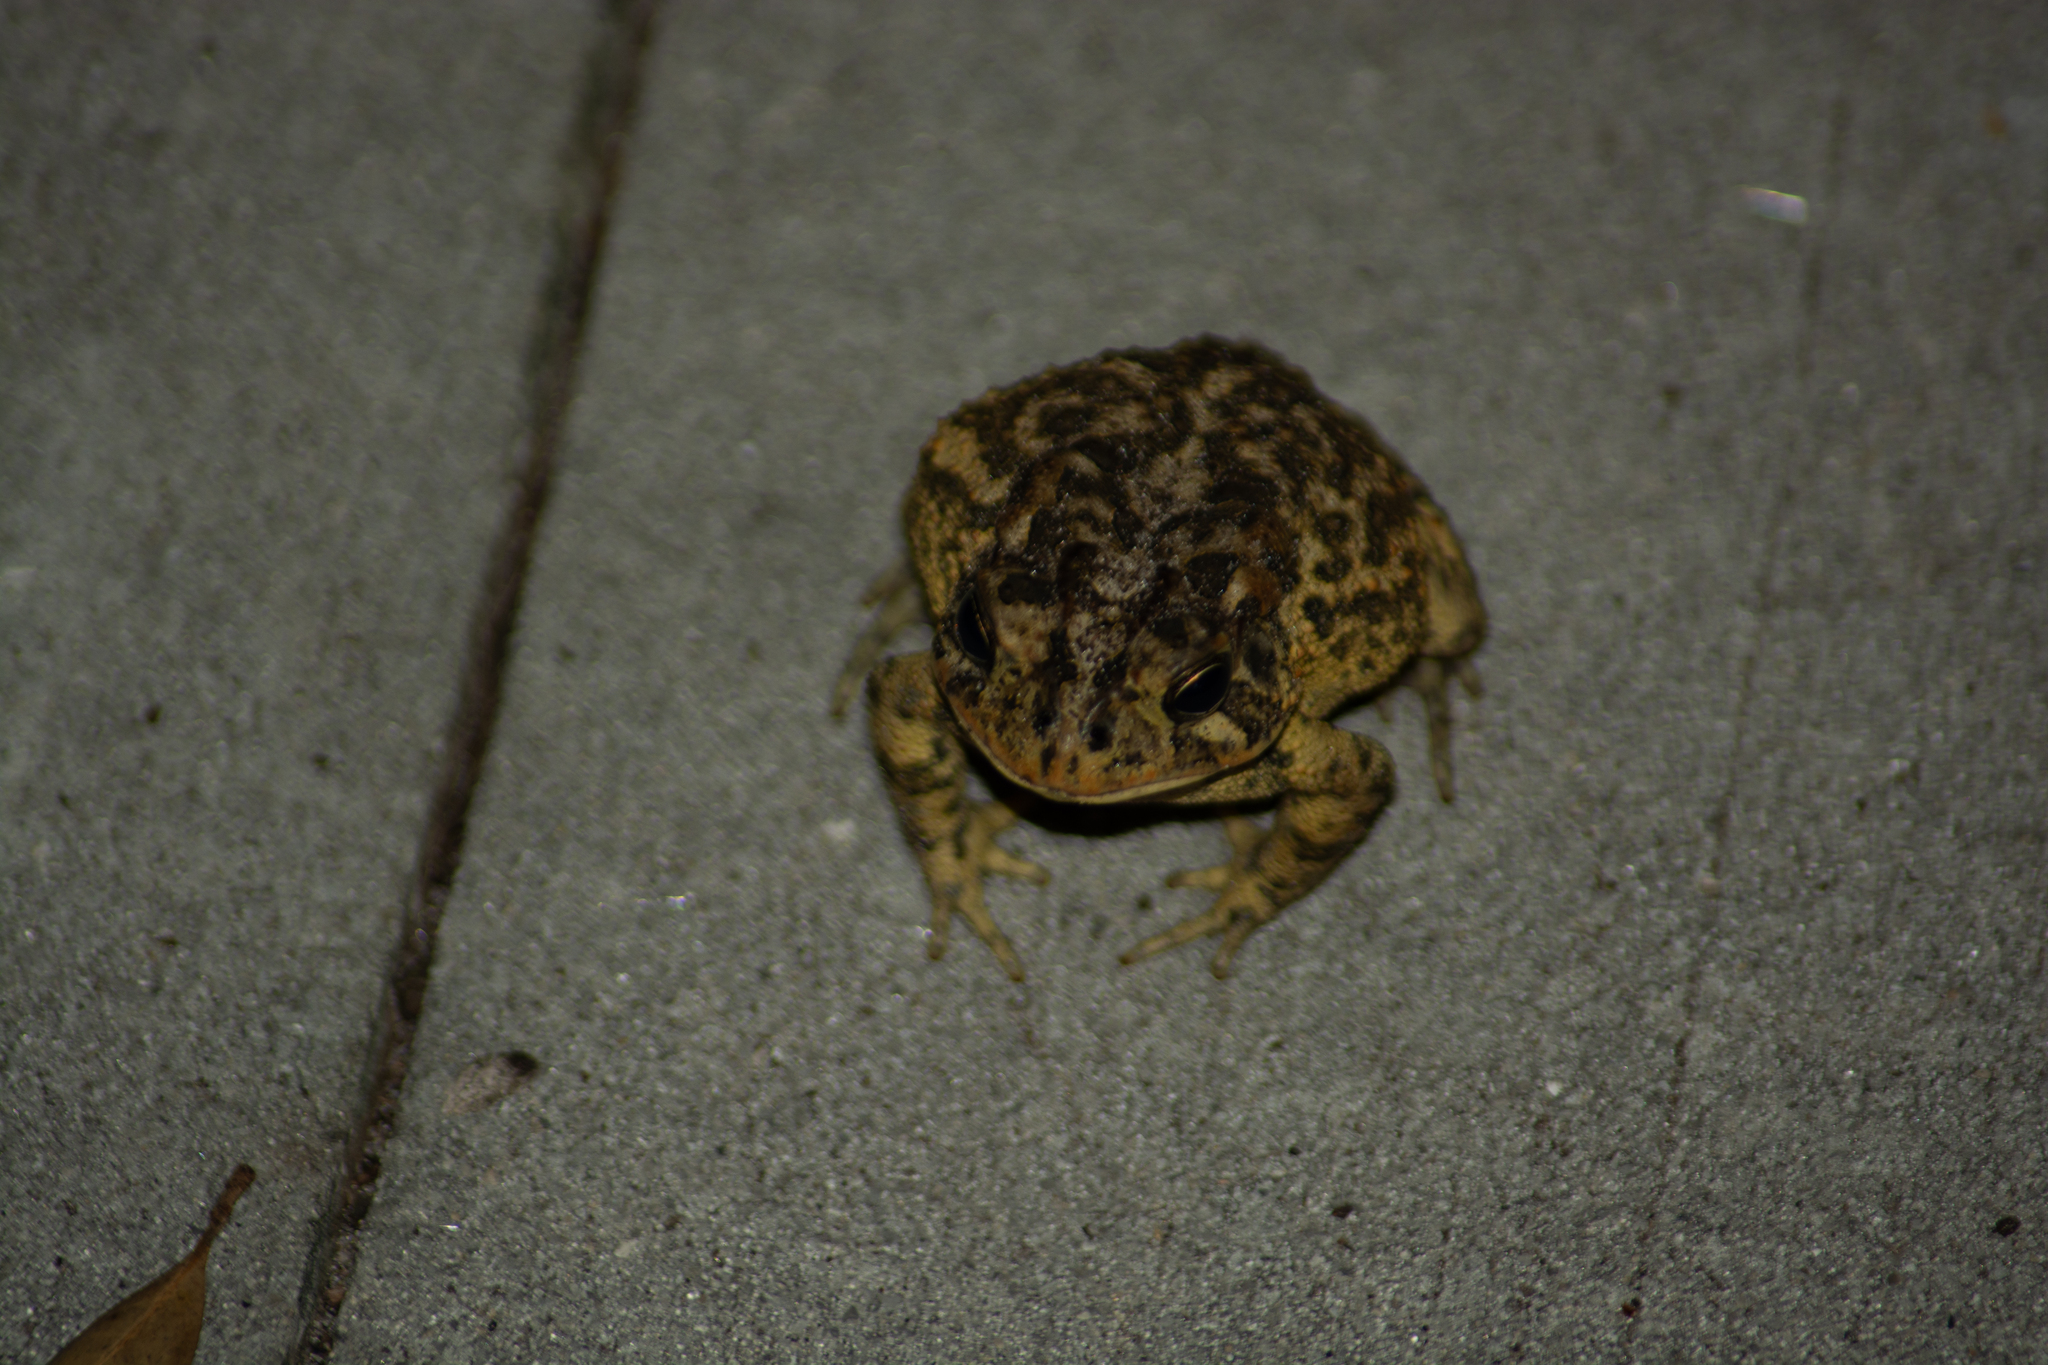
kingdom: Animalia
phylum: Chordata
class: Amphibia
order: Anura
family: Bufonidae
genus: Anaxyrus
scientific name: Anaxyrus terrestris
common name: Southern toad
